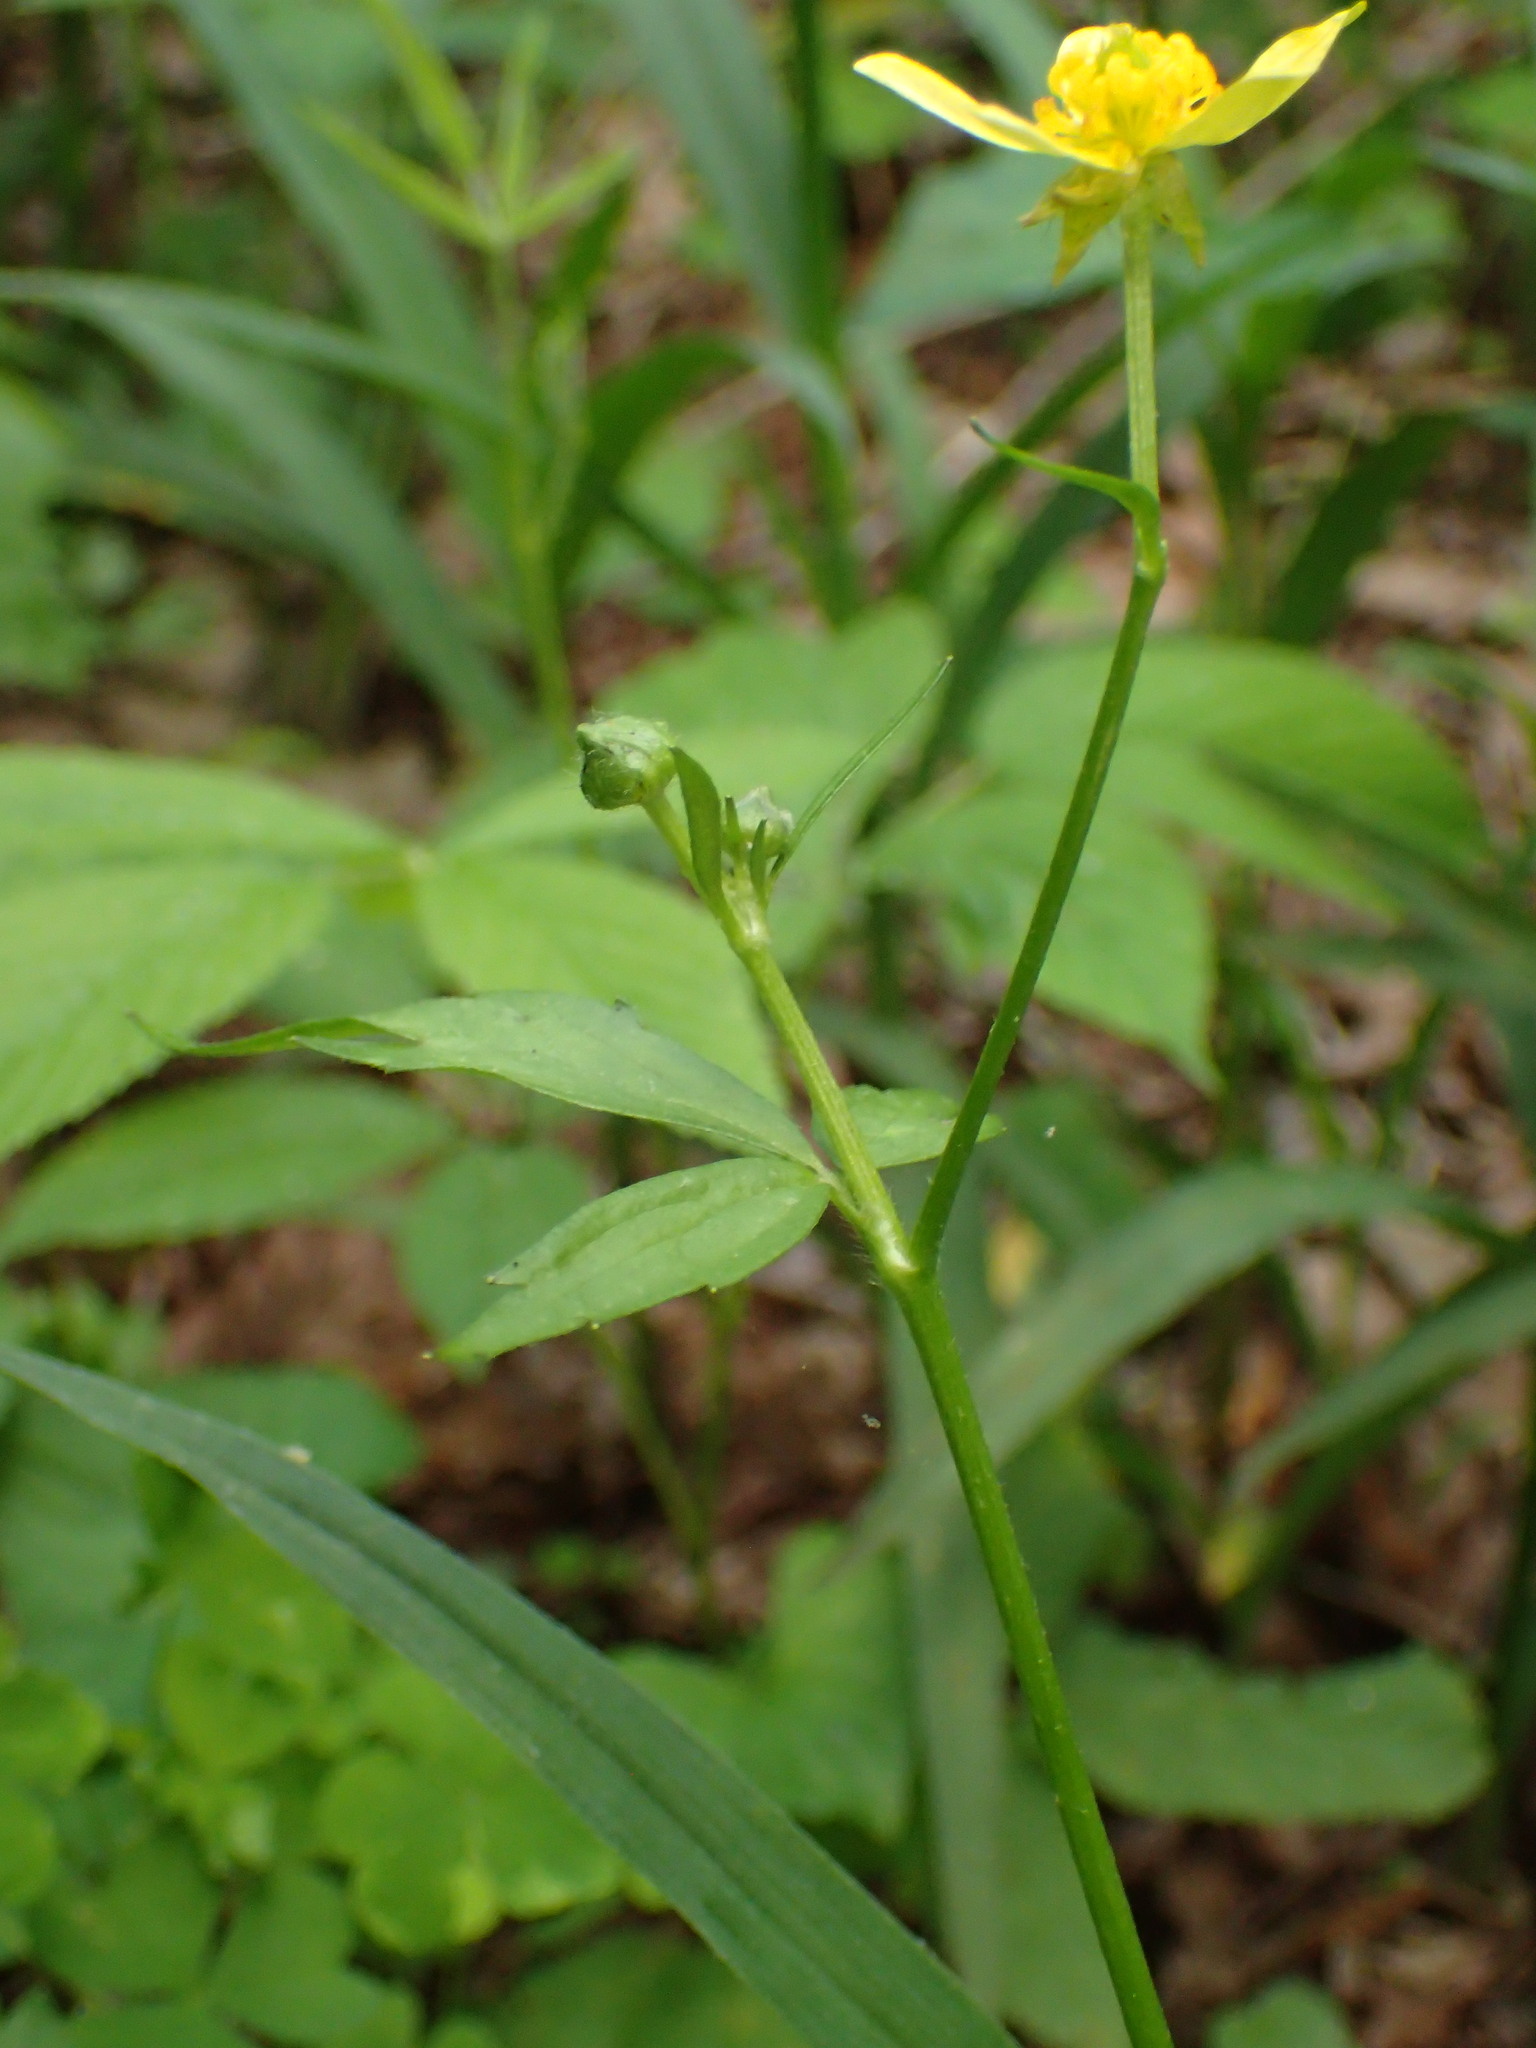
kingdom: Plantae
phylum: Tracheophyta
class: Magnoliopsida
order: Ranunculales
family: Ranunculaceae
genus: Ranunculus
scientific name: Ranunculus recurvatus
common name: Blisterwort
